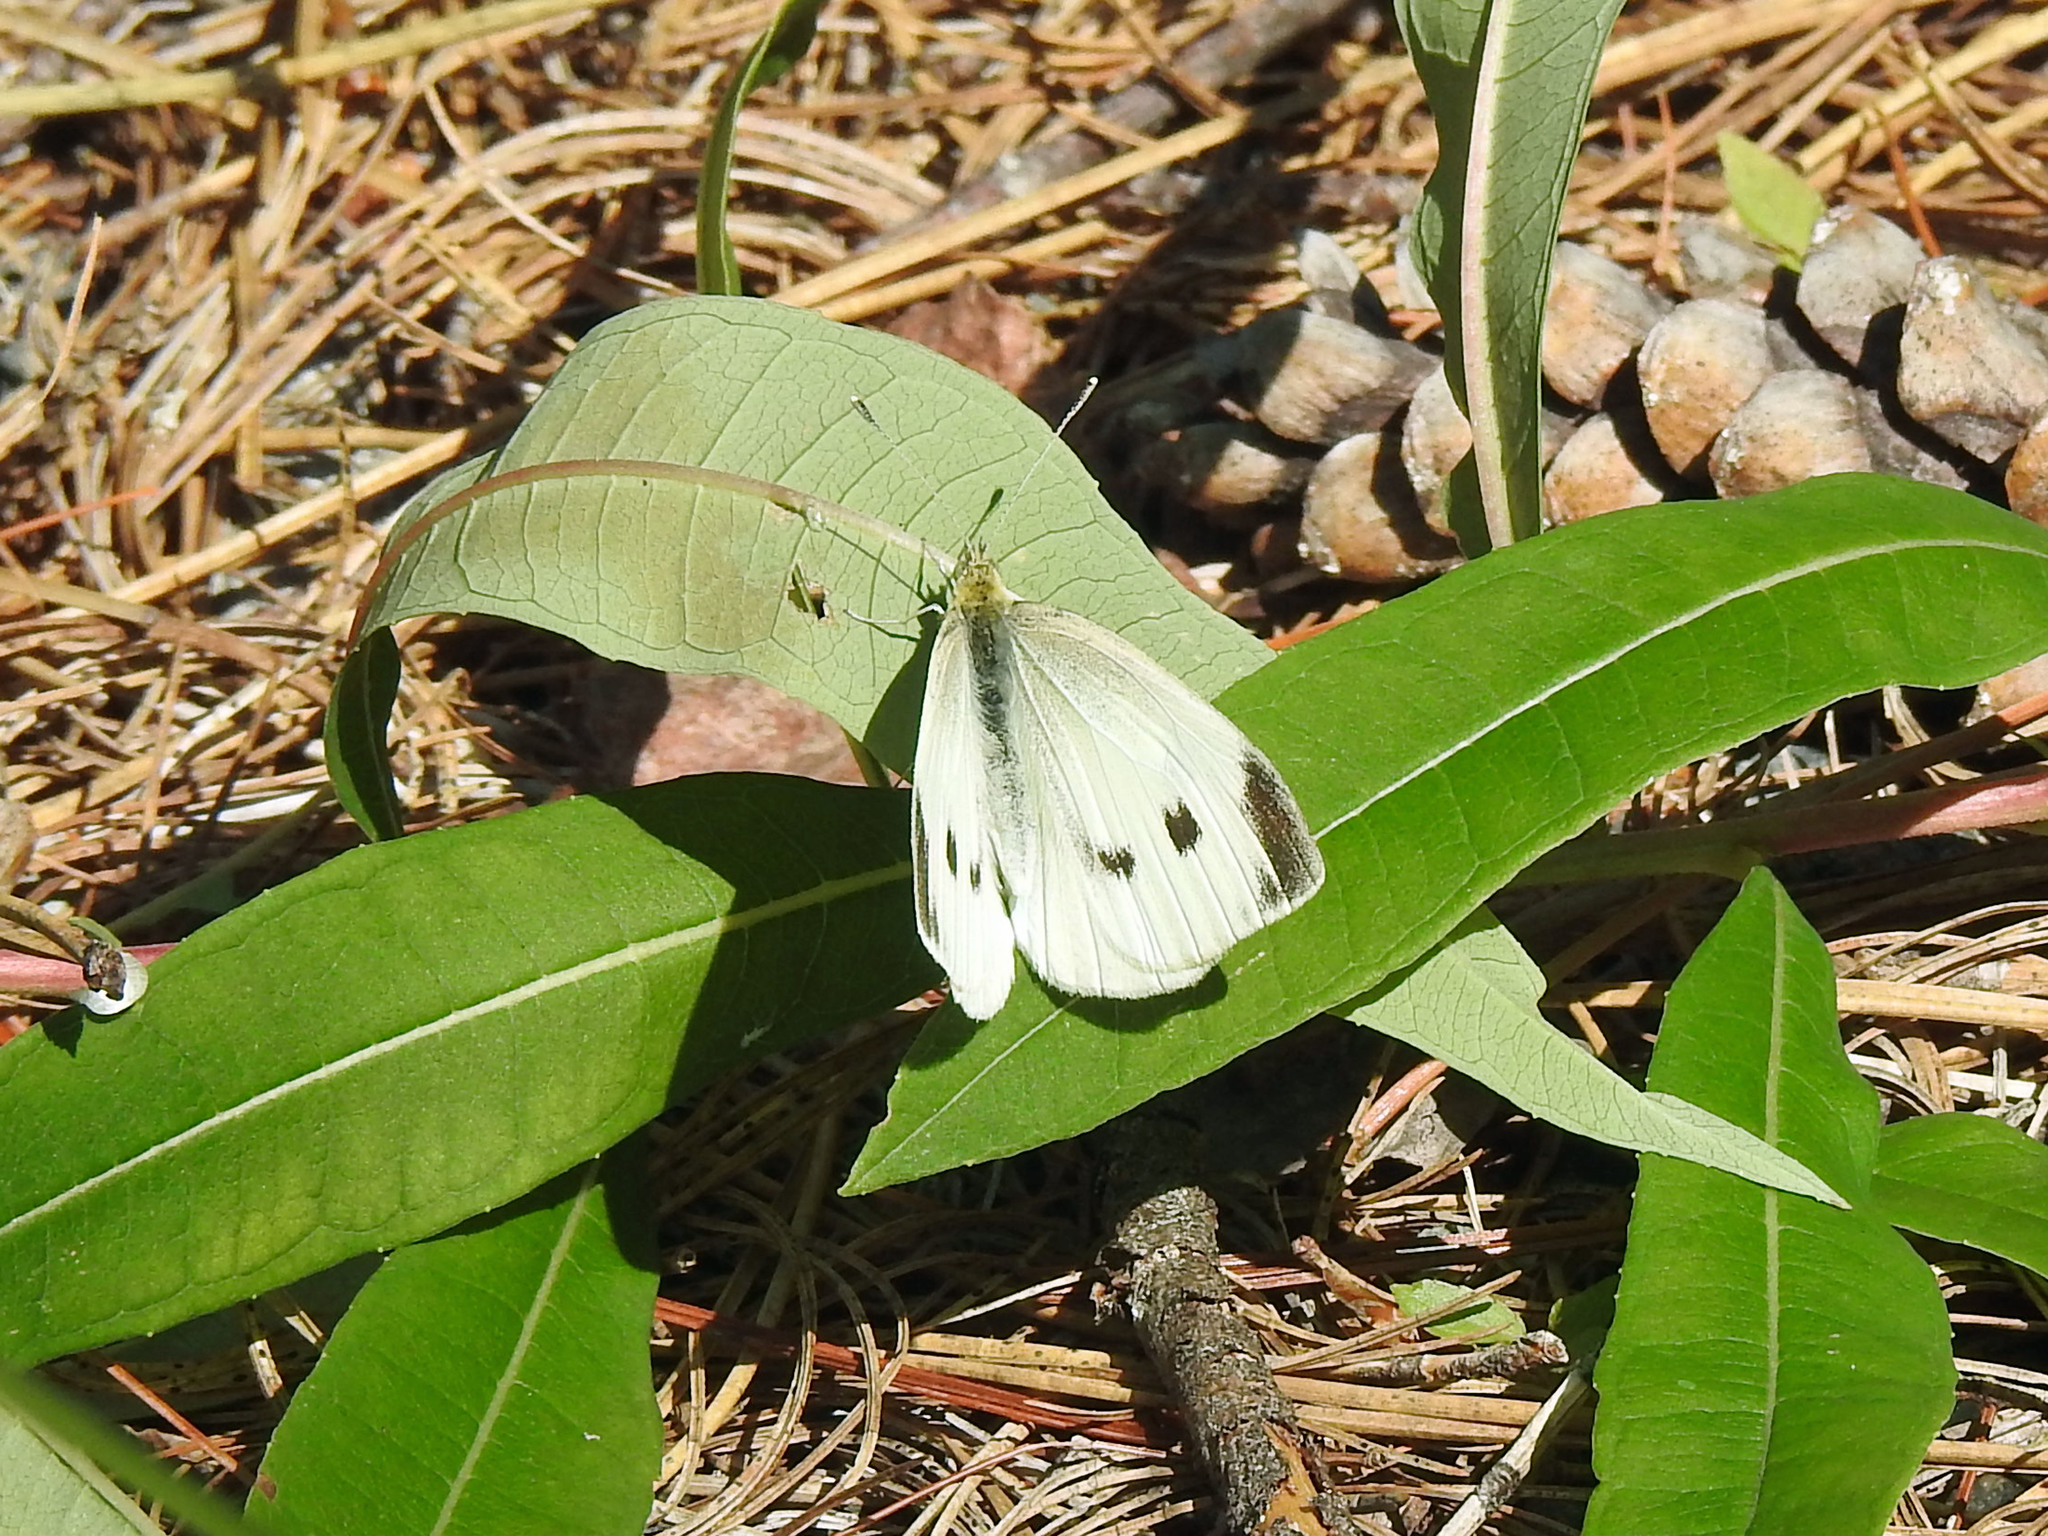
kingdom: Animalia
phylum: Arthropoda
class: Insecta
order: Lepidoptera
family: Pieridae
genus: Pieris
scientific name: Pieris rapae
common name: Small white
